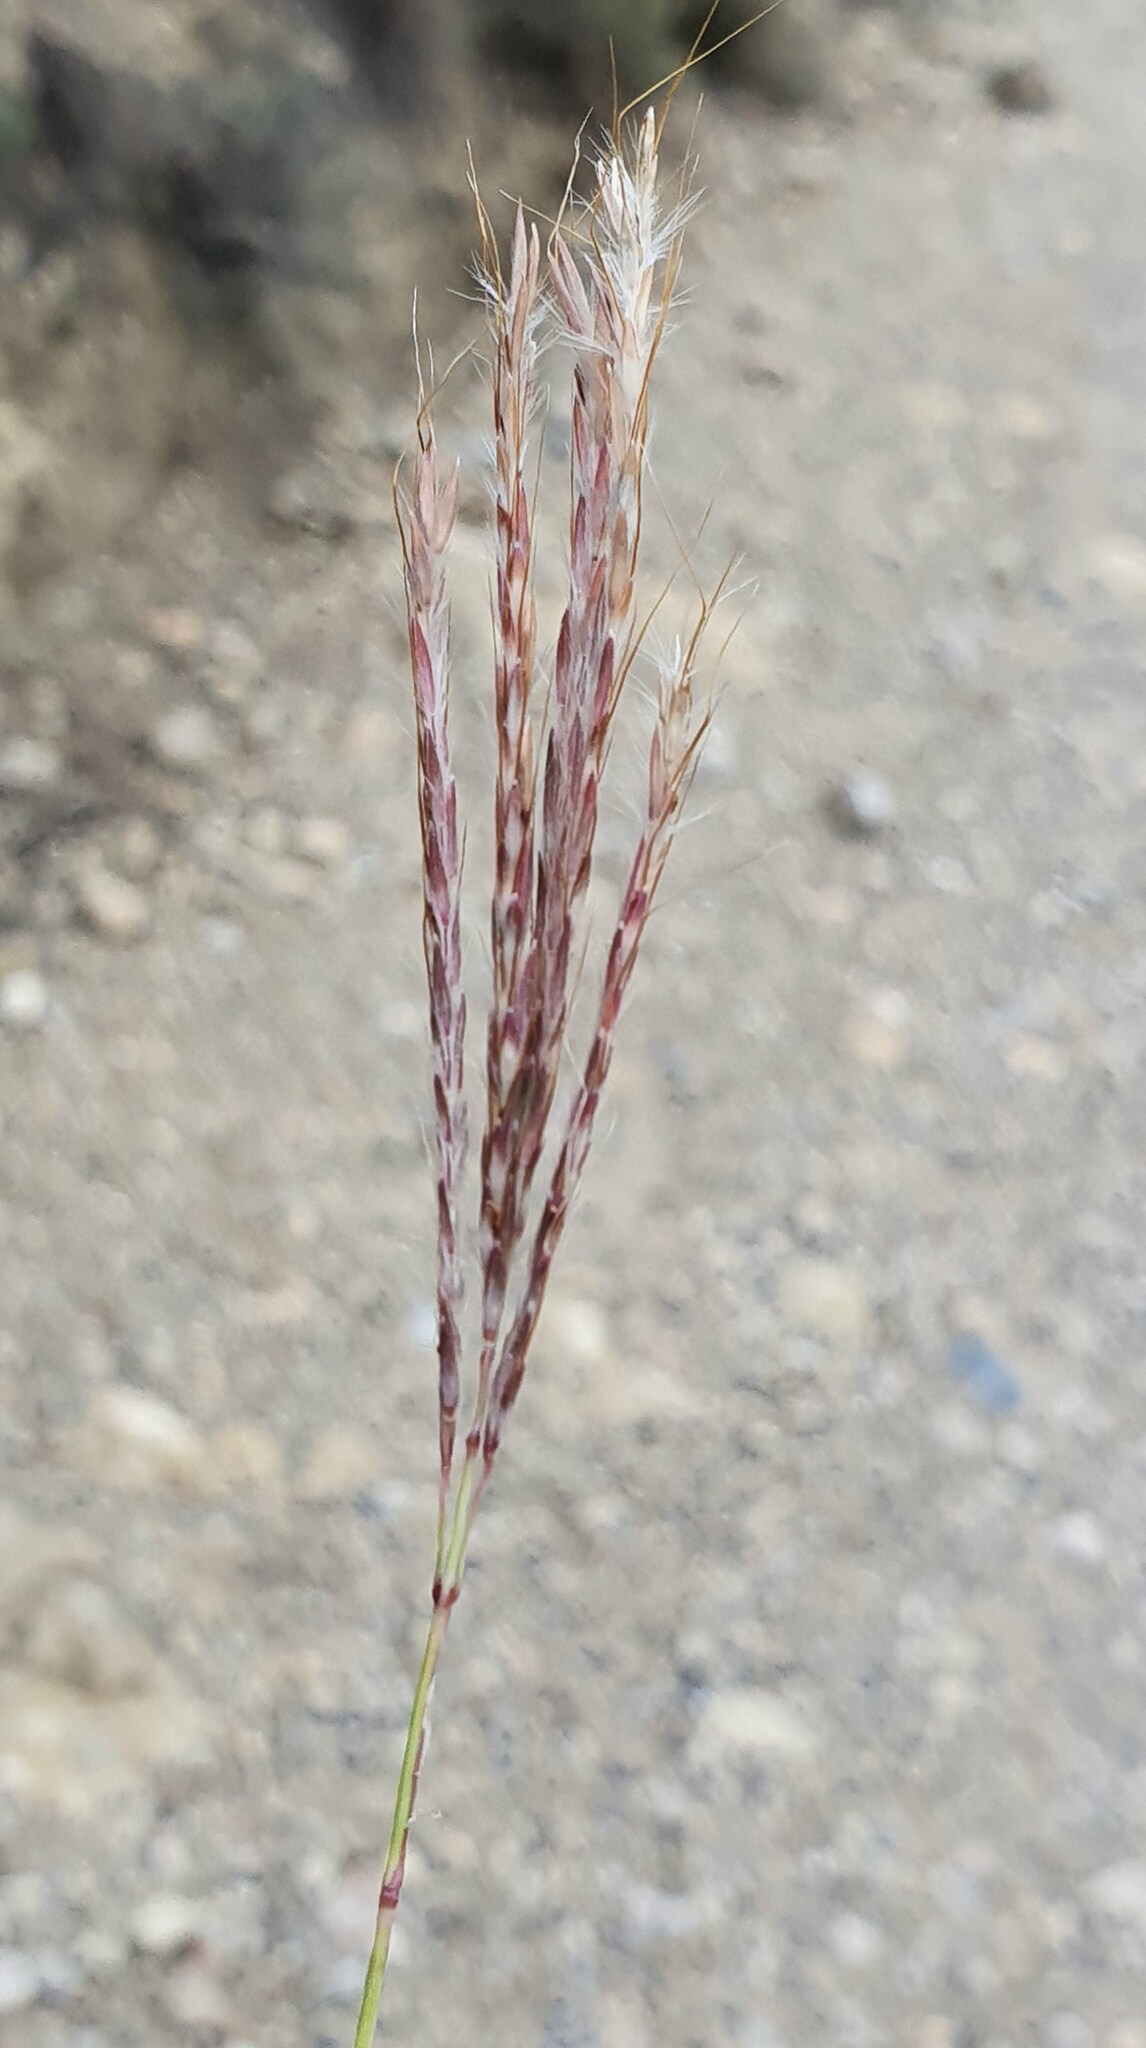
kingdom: Plantae
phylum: Tracheophyta
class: Liliopsida
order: Poales
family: Poaceae
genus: Bothriochloa
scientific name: Bothriochloa ischaemum
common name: Yellow bluestem
